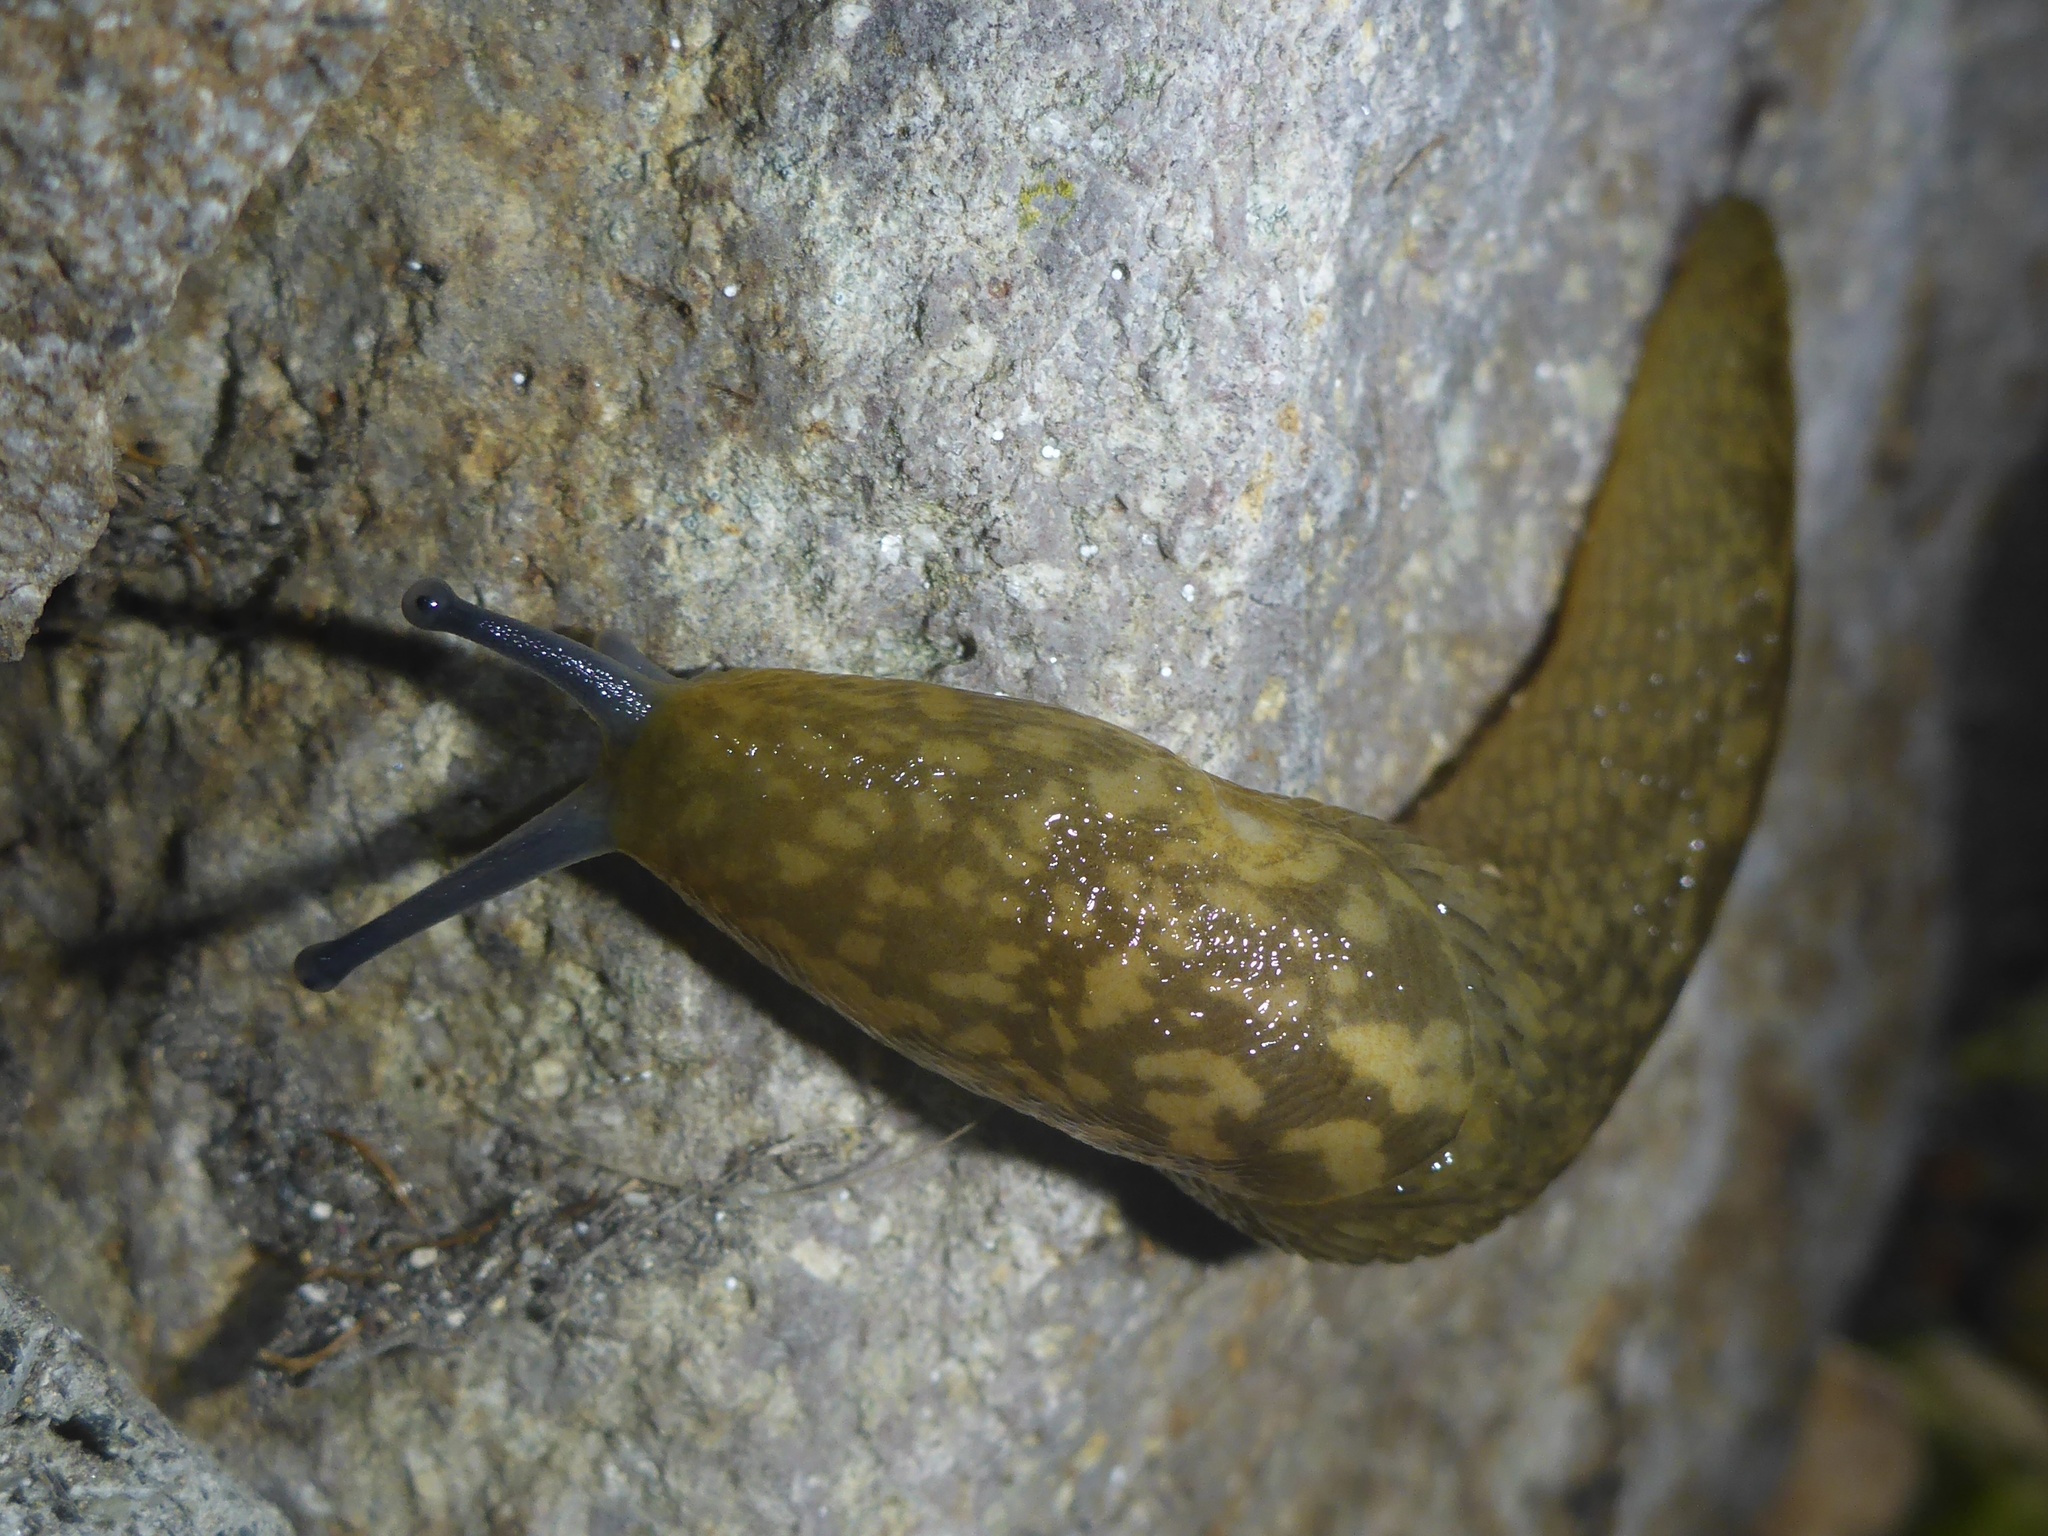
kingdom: Animalia
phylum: Mollusca
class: Gastropoda
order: Stylommatophora
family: Limacidae
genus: Limacus
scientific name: Limacus flavus
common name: Yellow gardenslug
